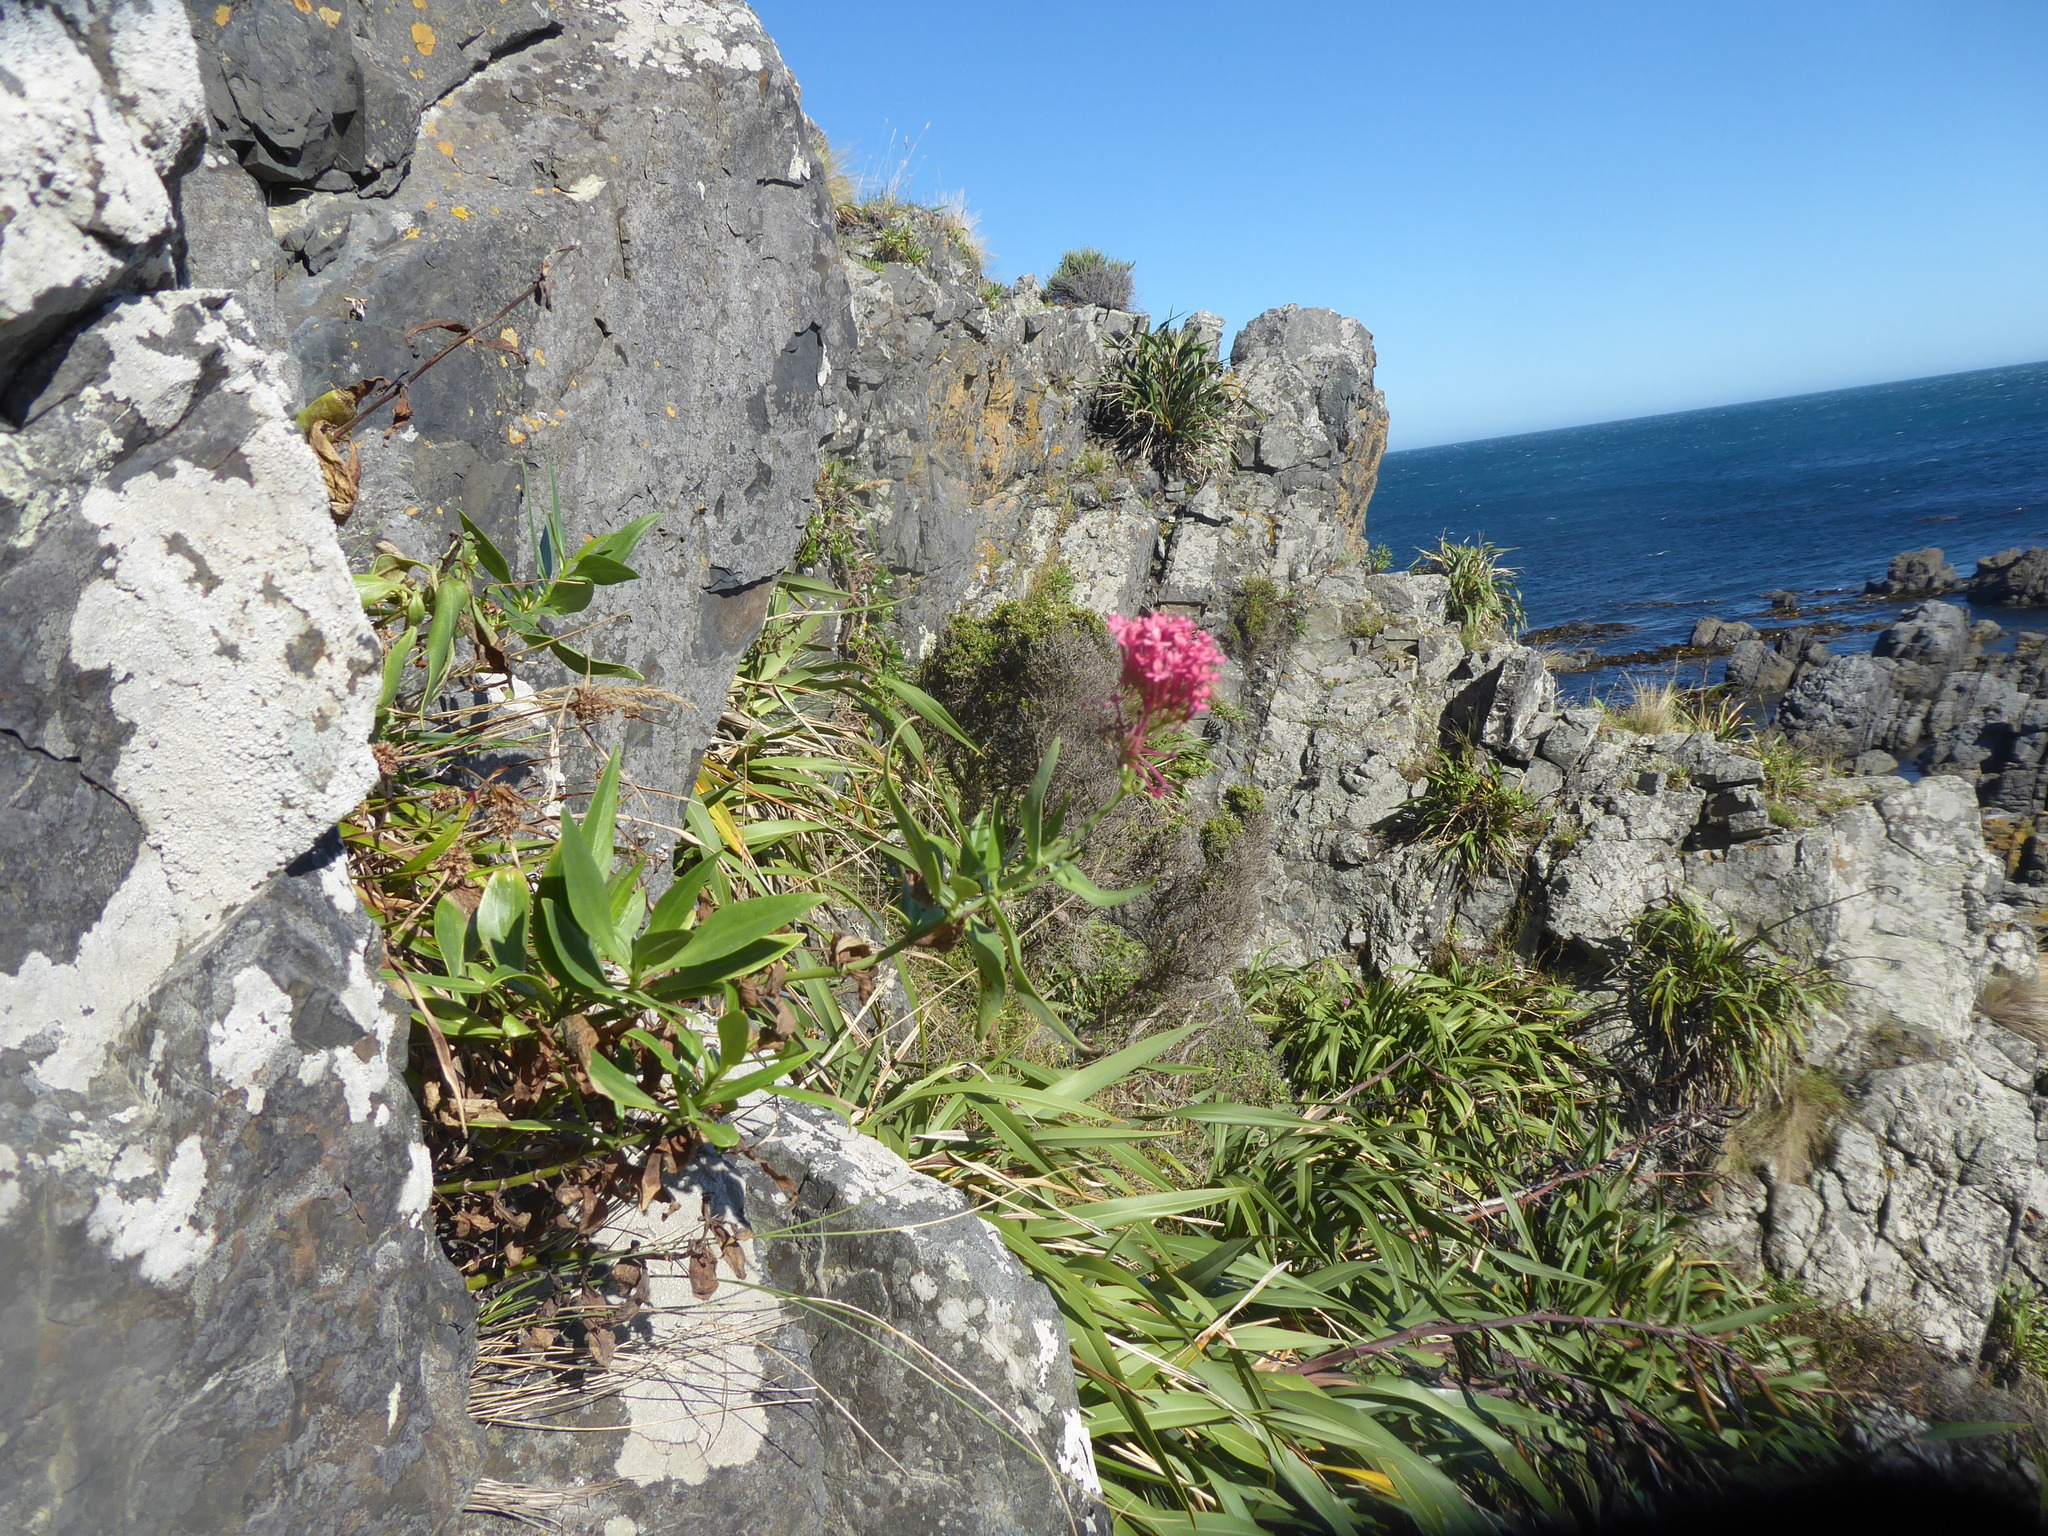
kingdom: Plantae
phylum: Tracheophyta
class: Magnoliopsida
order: Dipsacales
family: Caprifoliaceae
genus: Centranthus
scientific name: Centranthus ruber
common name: Red valerian
